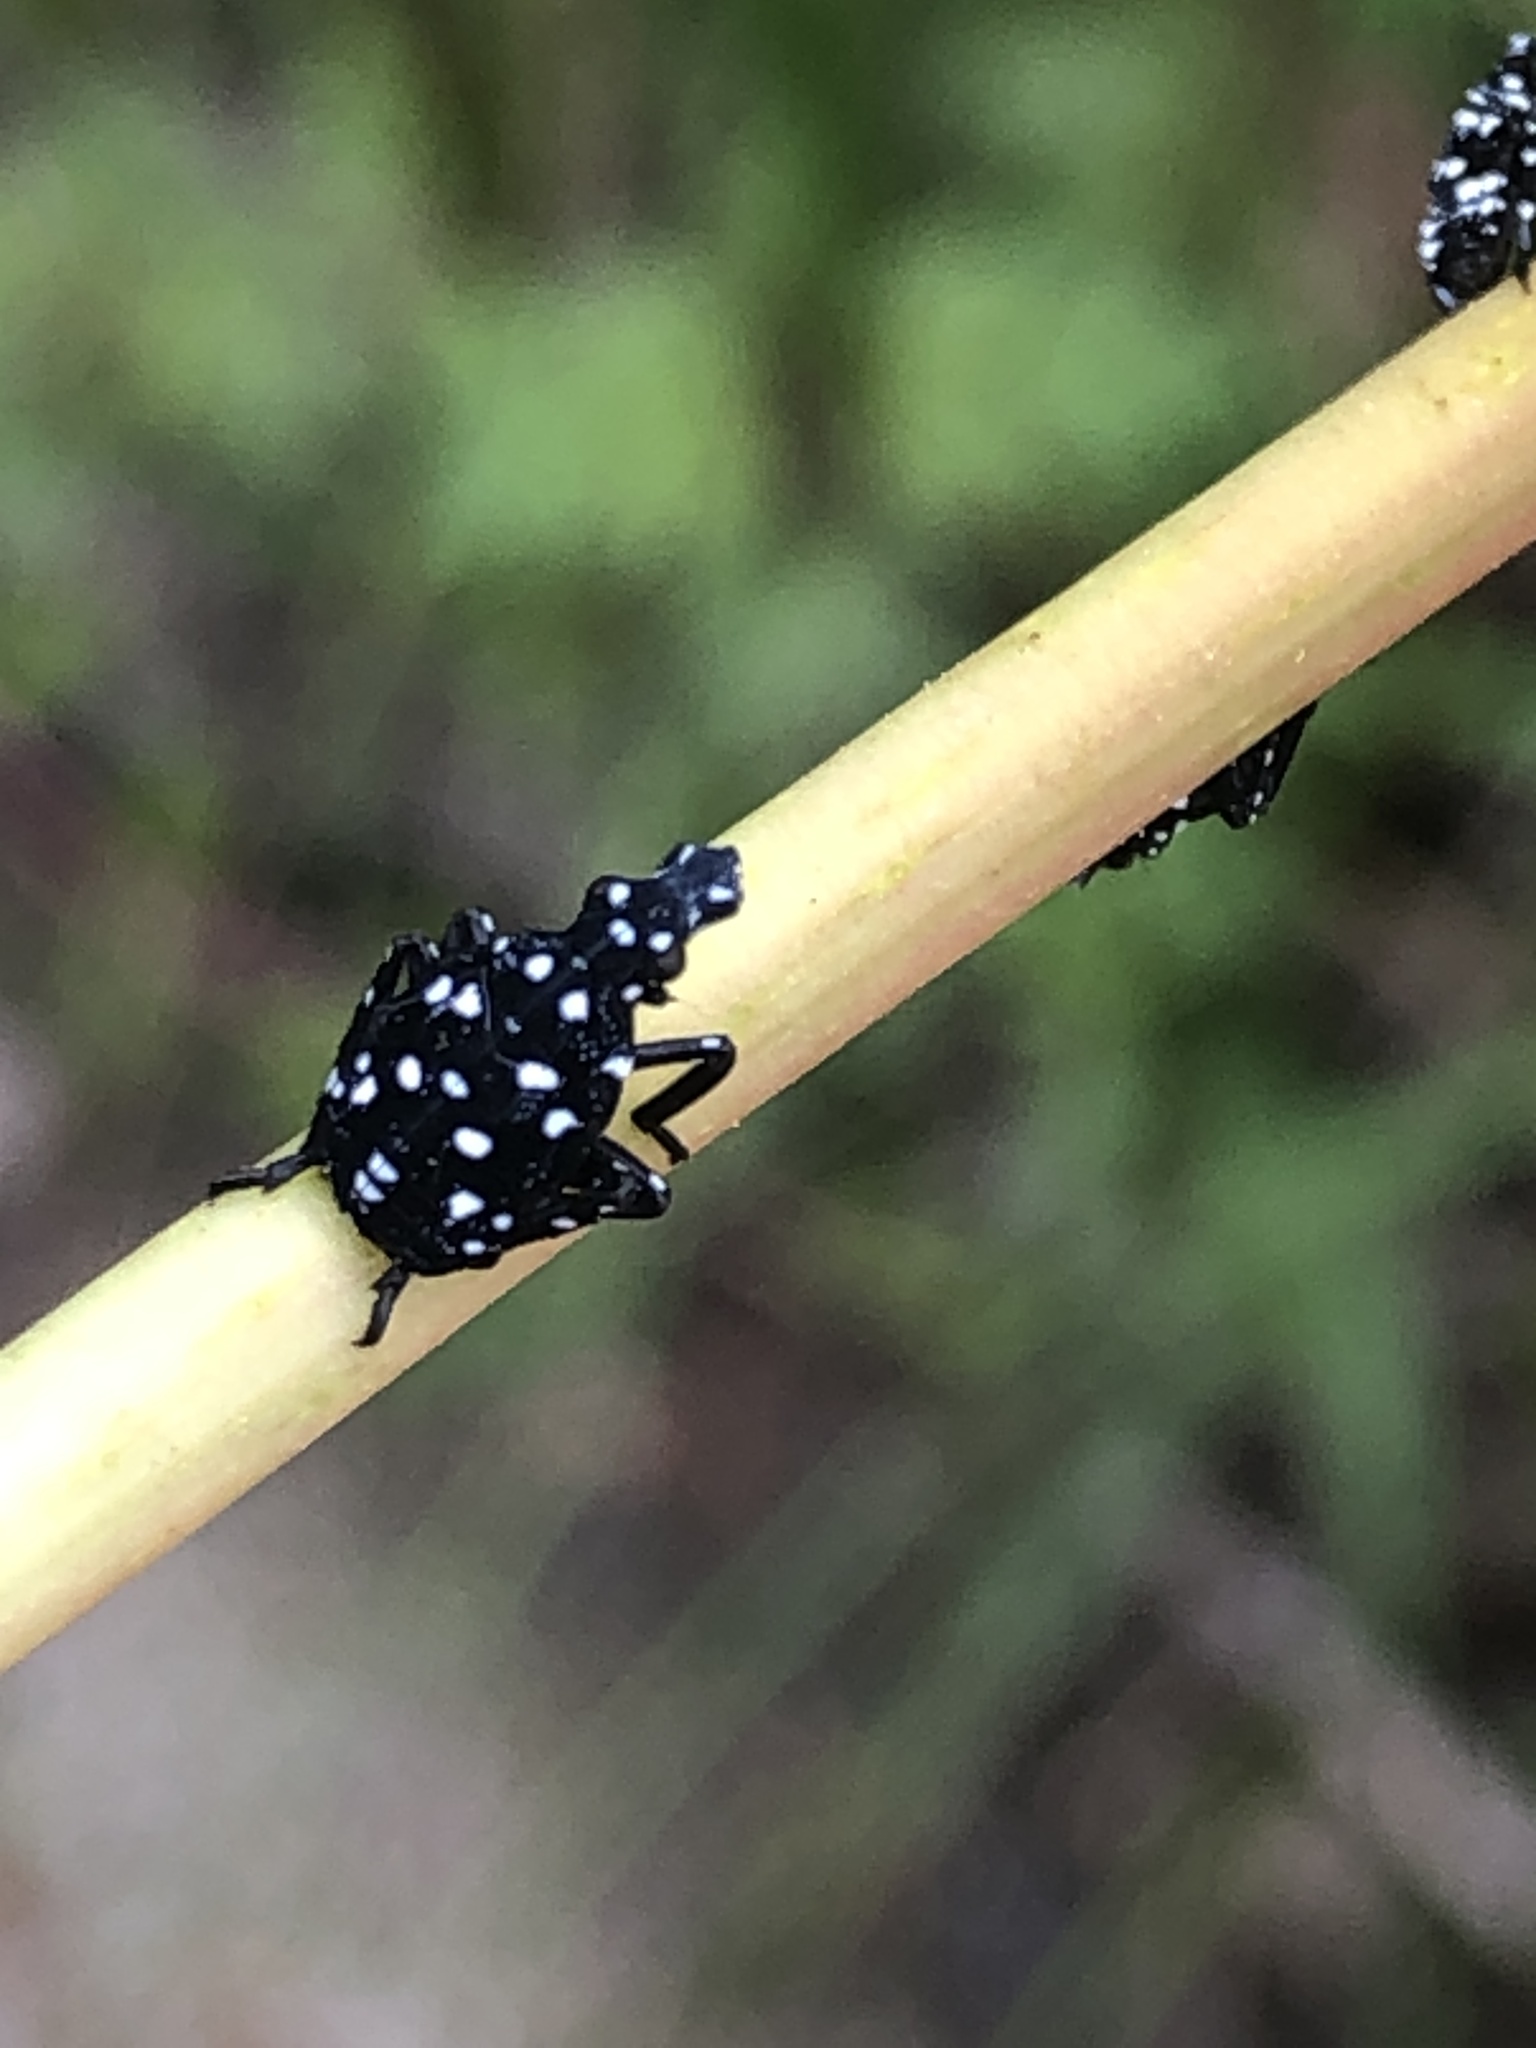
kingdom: Animalia
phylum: Arthropoda
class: Insecta
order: Hemiptera
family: Fulgoridae
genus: Lycorma
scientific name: Lycorma delicatula
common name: Spotted lanternfly
